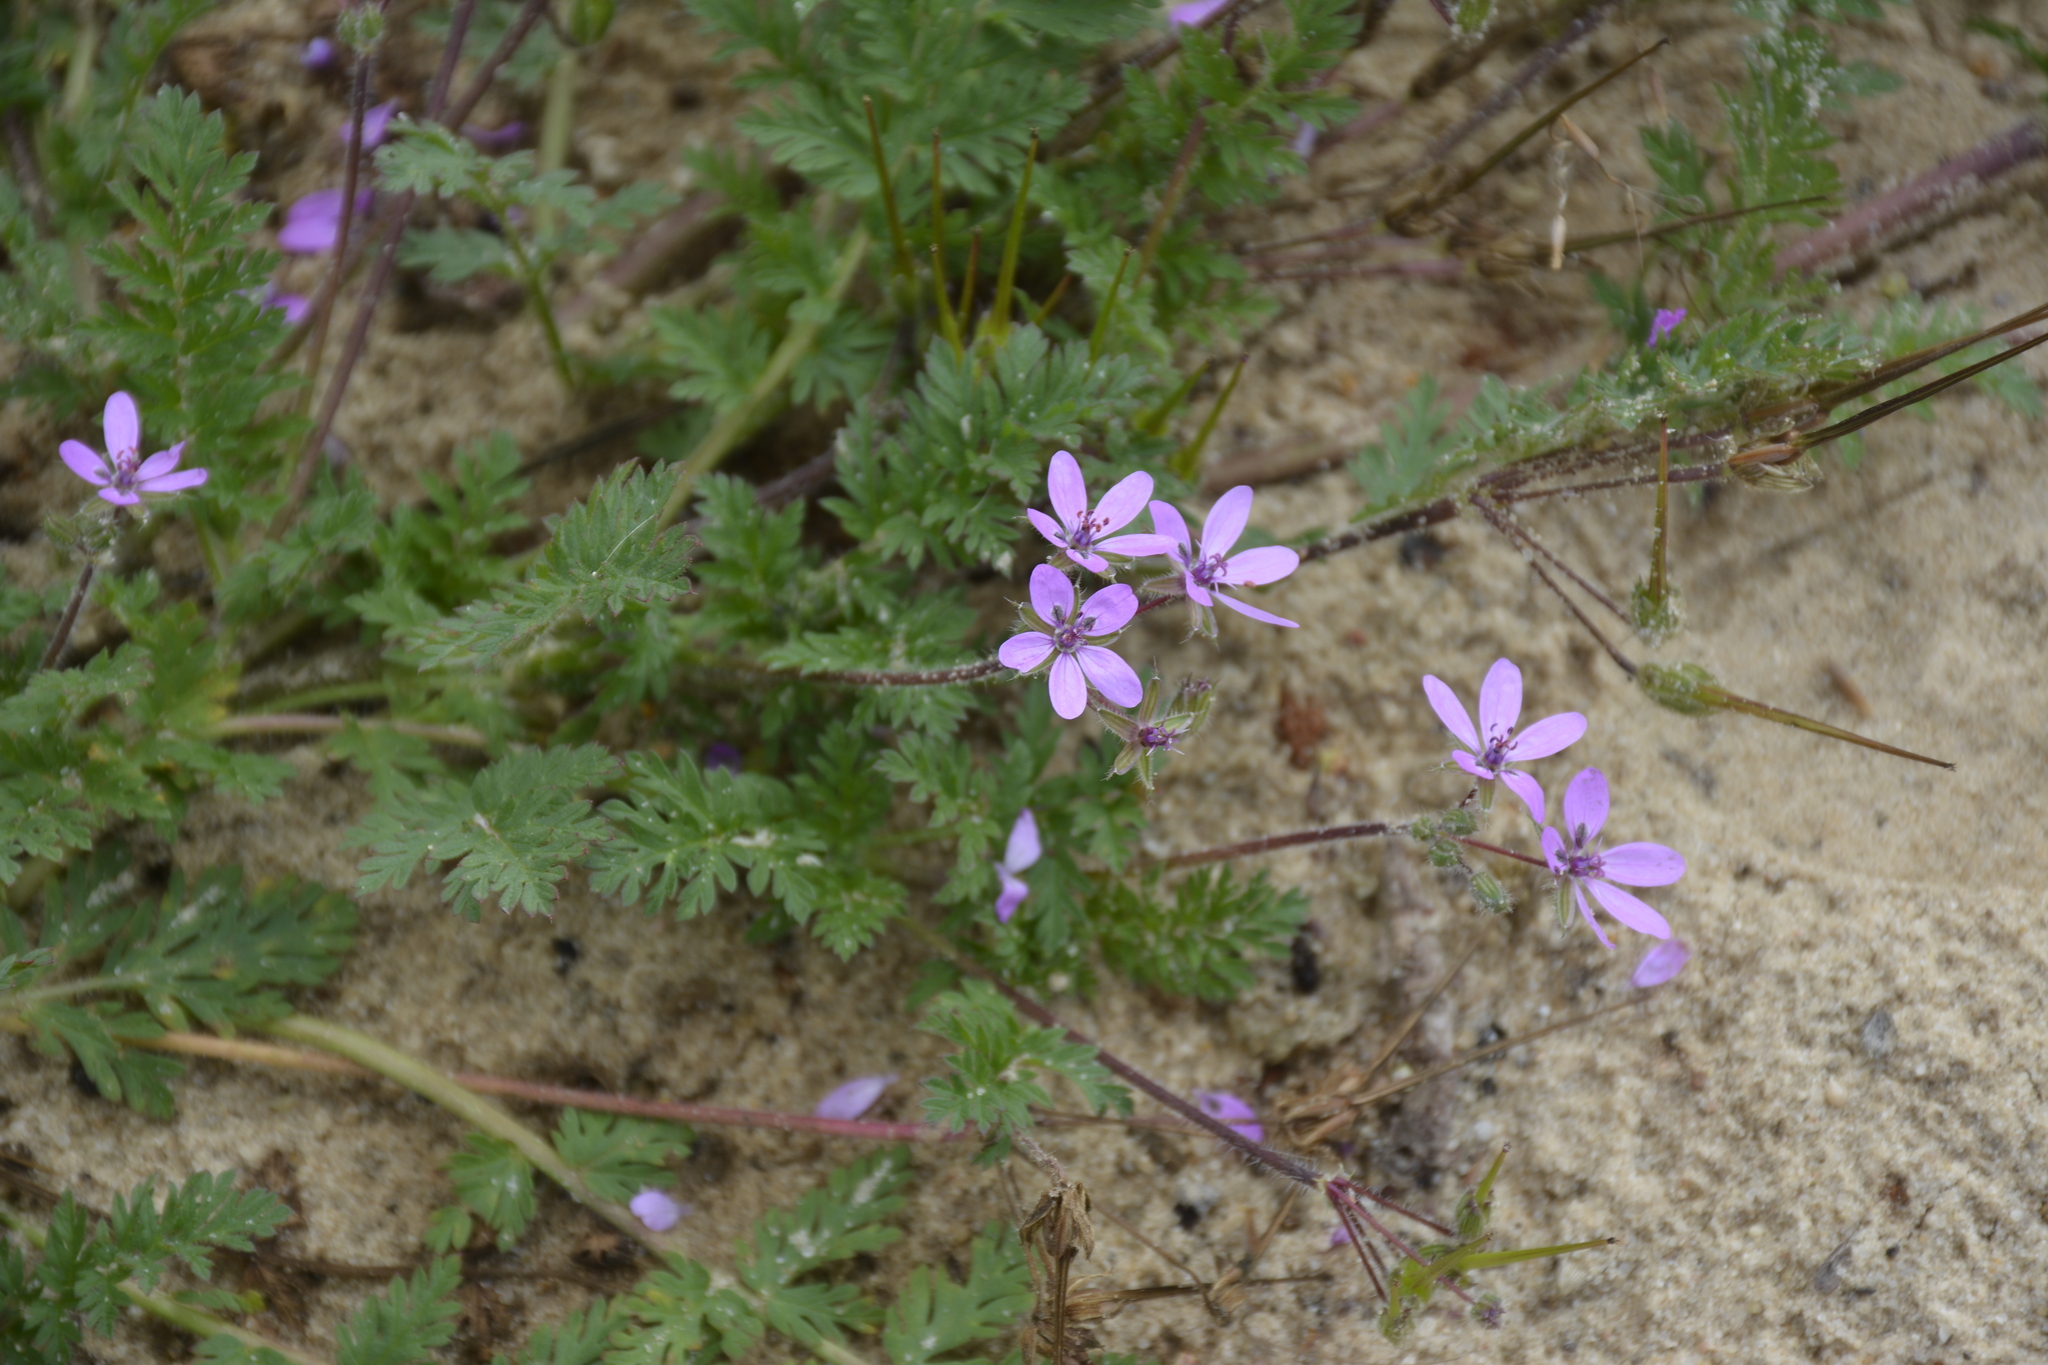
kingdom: Plantae
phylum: Tracheophyta
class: Magnoliopsida
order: Geraniales
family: Geraniaceae
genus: Erodium
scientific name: Erodium cicutarium
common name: Common stork's-bill
